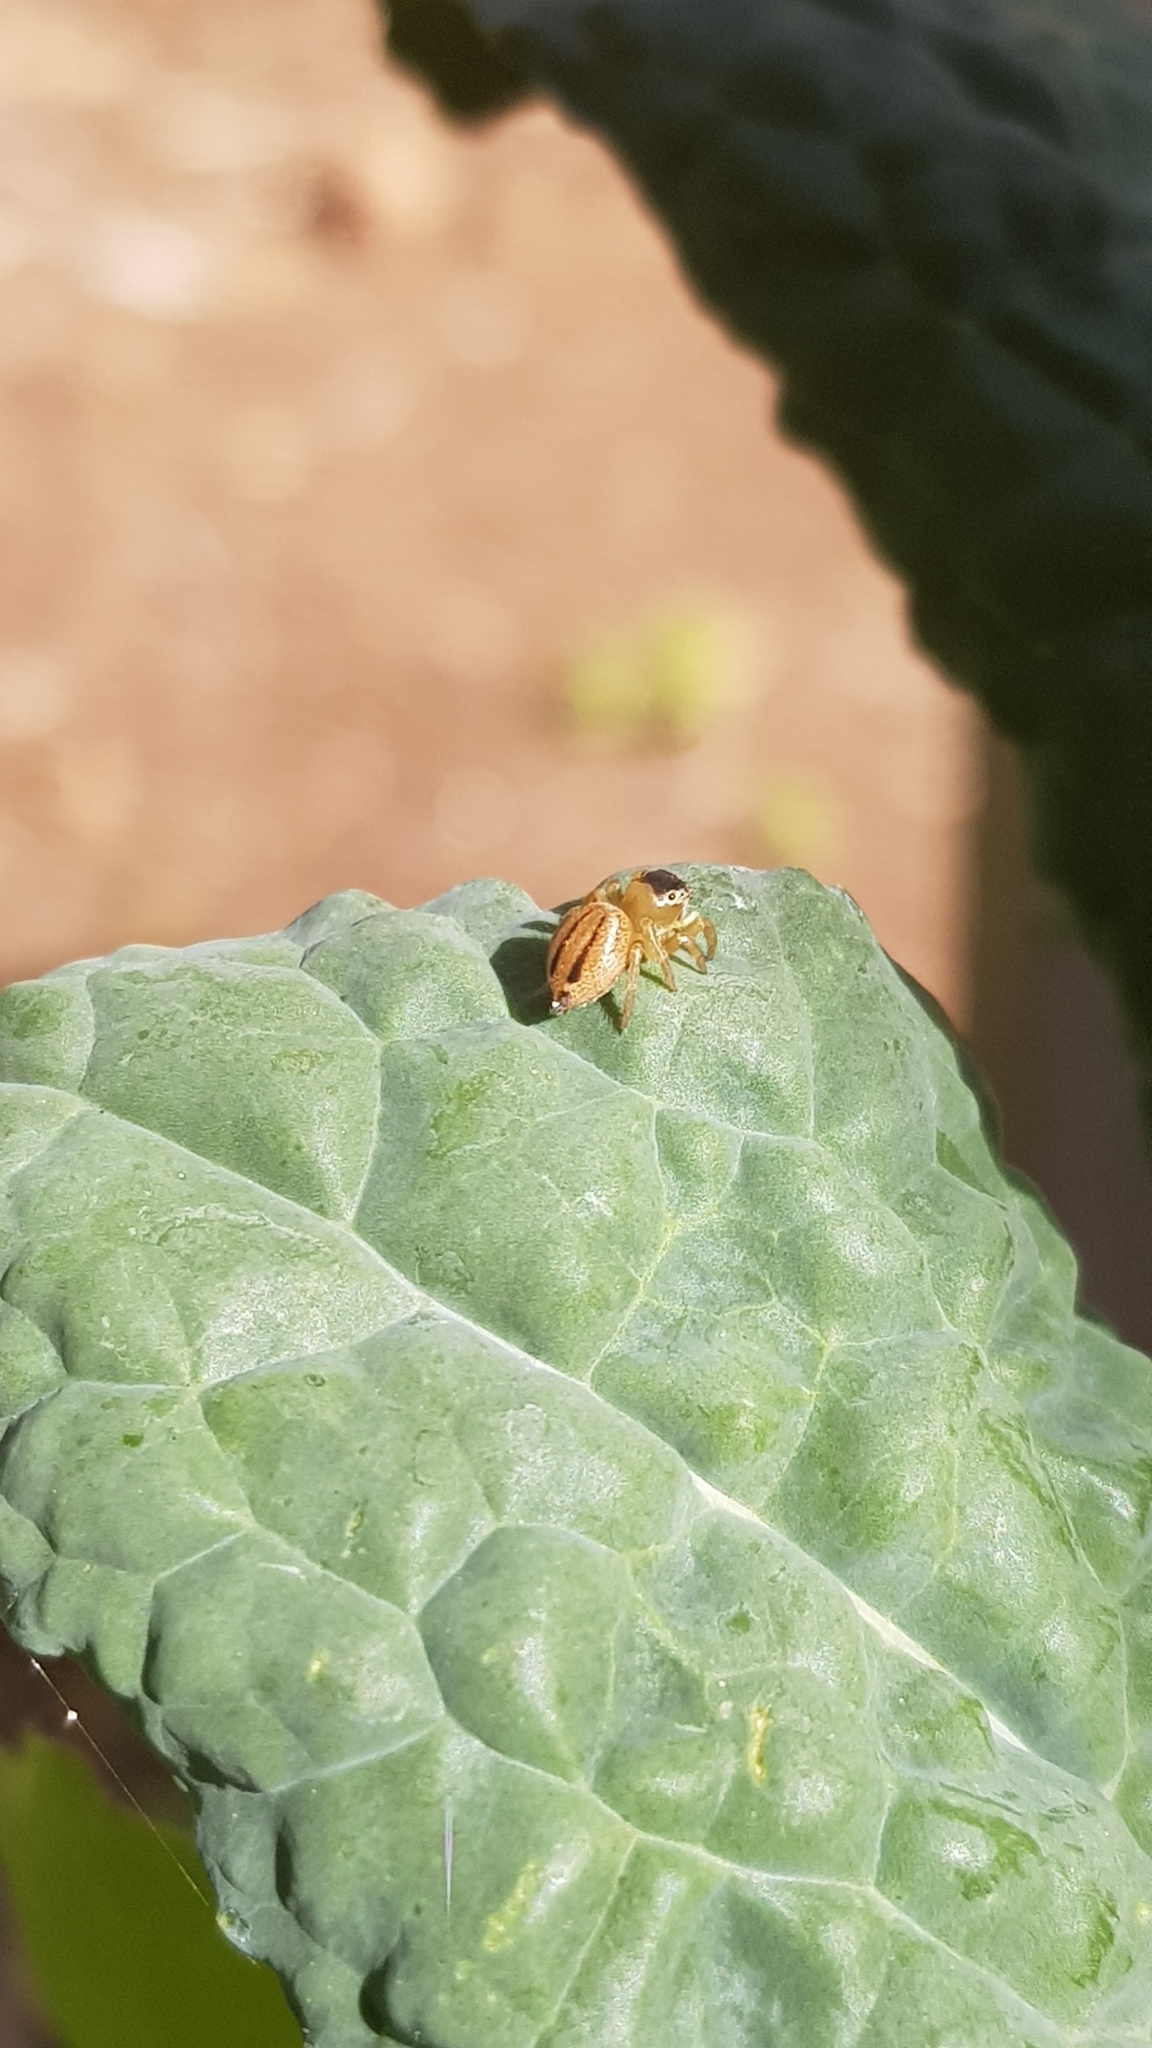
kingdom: Animalia
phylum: Arthropoda
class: Arachnida
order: Araneae
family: Salticidae
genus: Maratus
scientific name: Maratus scutulatus
